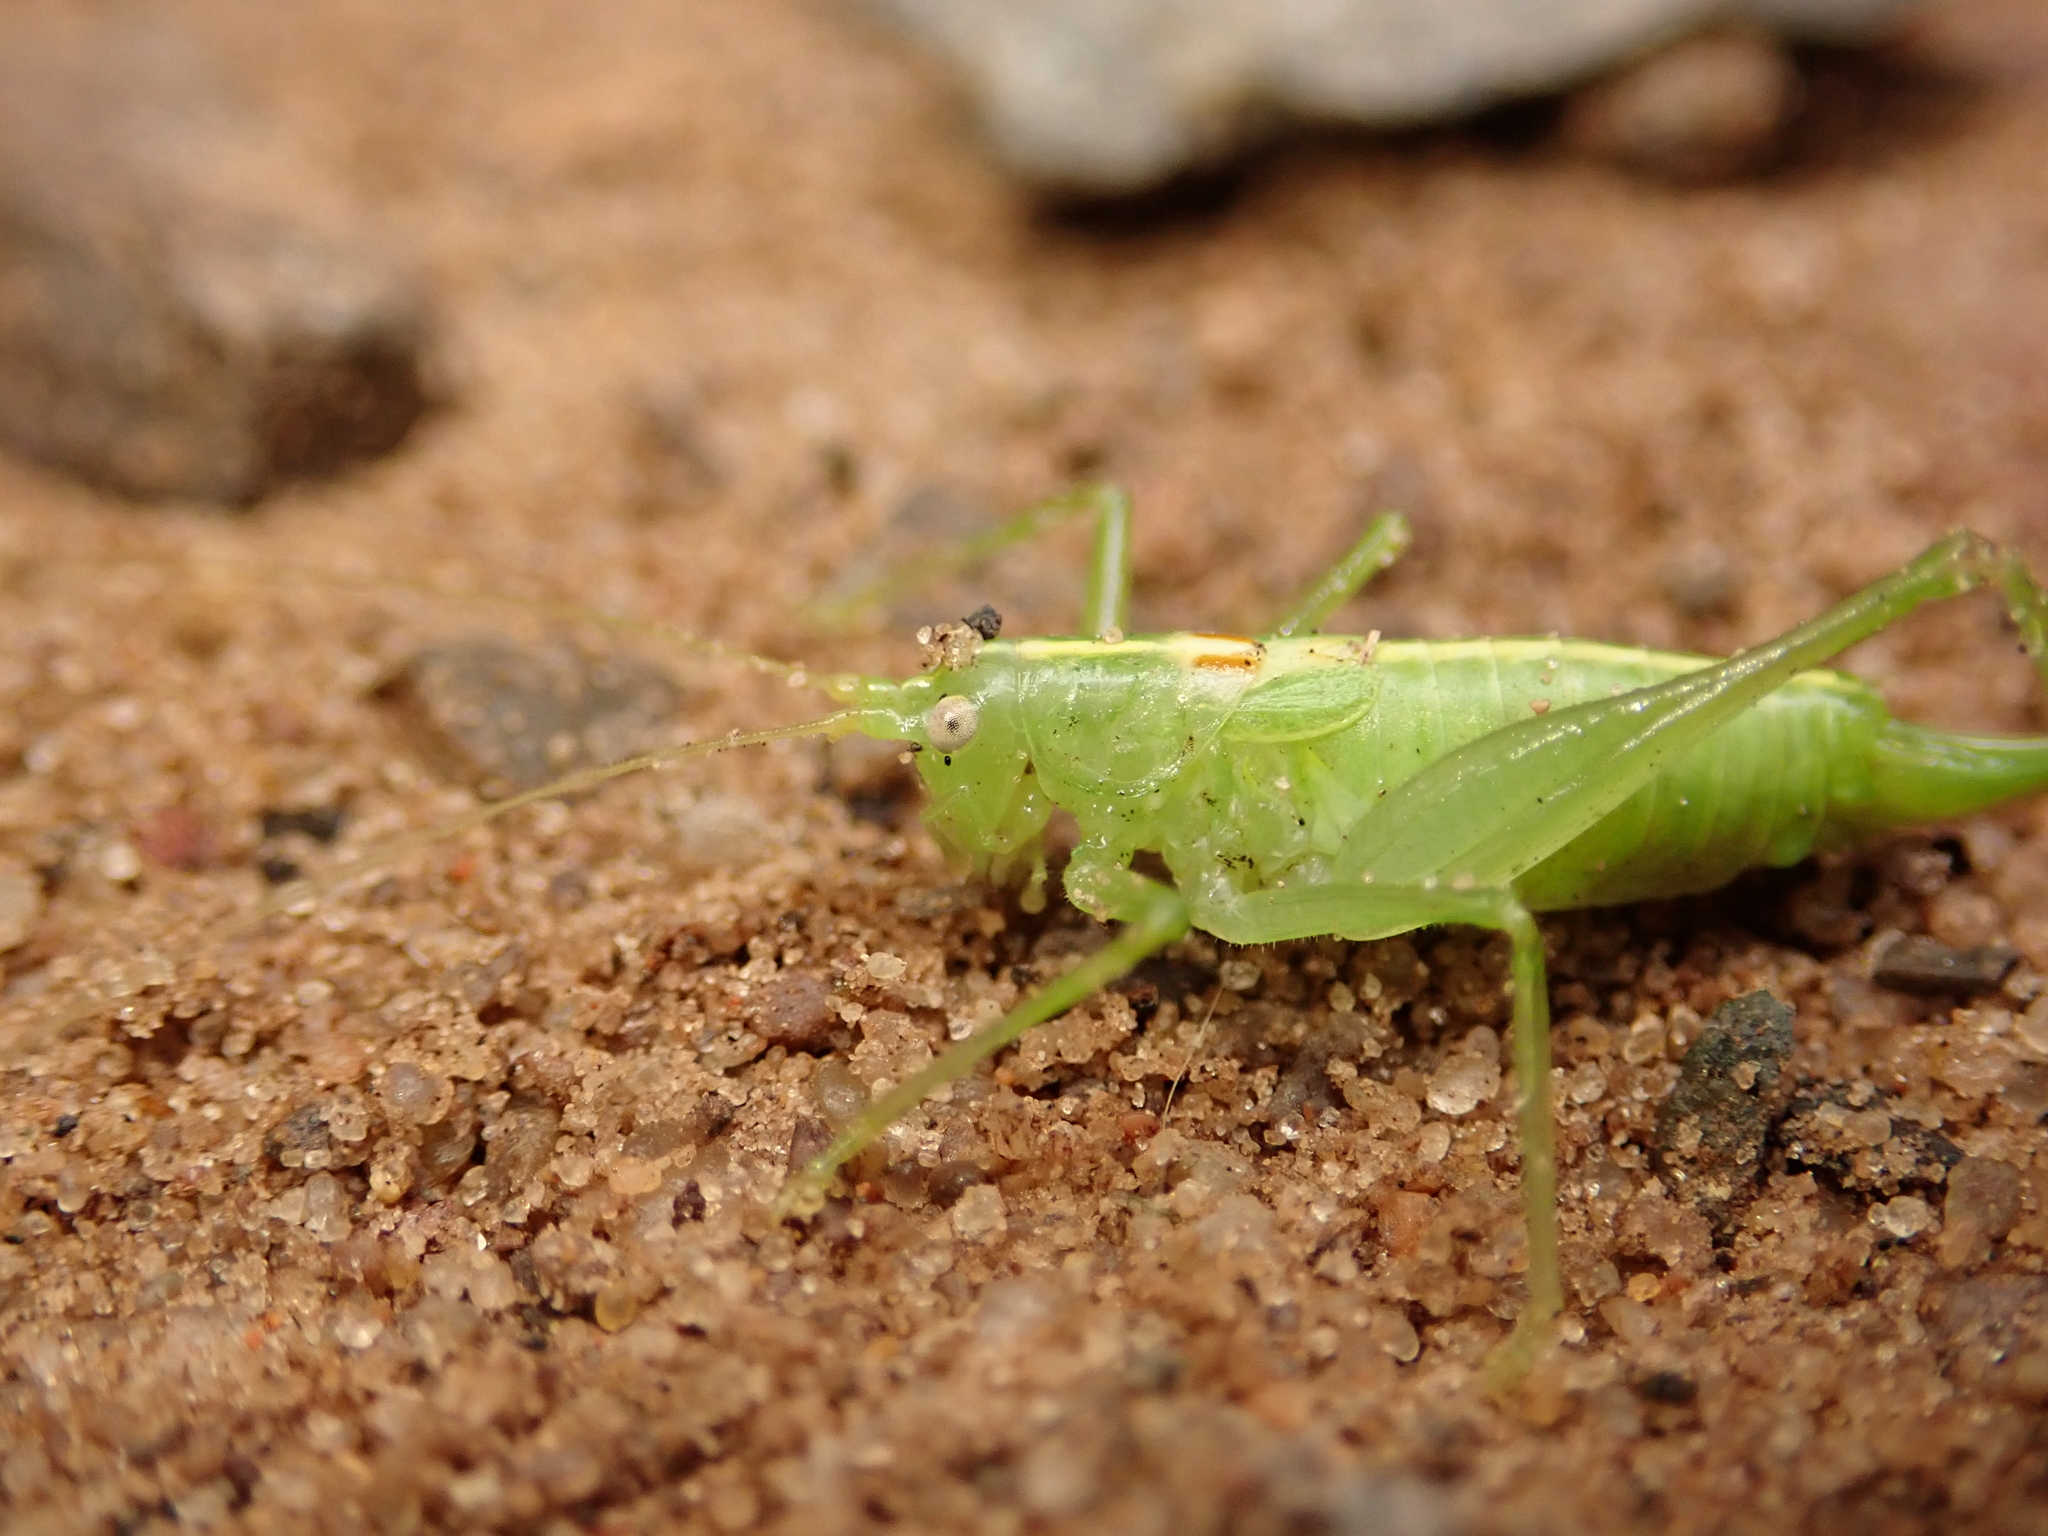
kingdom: Animalia
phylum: Arthropoda
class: Insecta
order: Orthoptera
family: Tettigoniidae
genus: Meconema
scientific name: Meconema meridionale
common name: Southern oak bush-cricket
